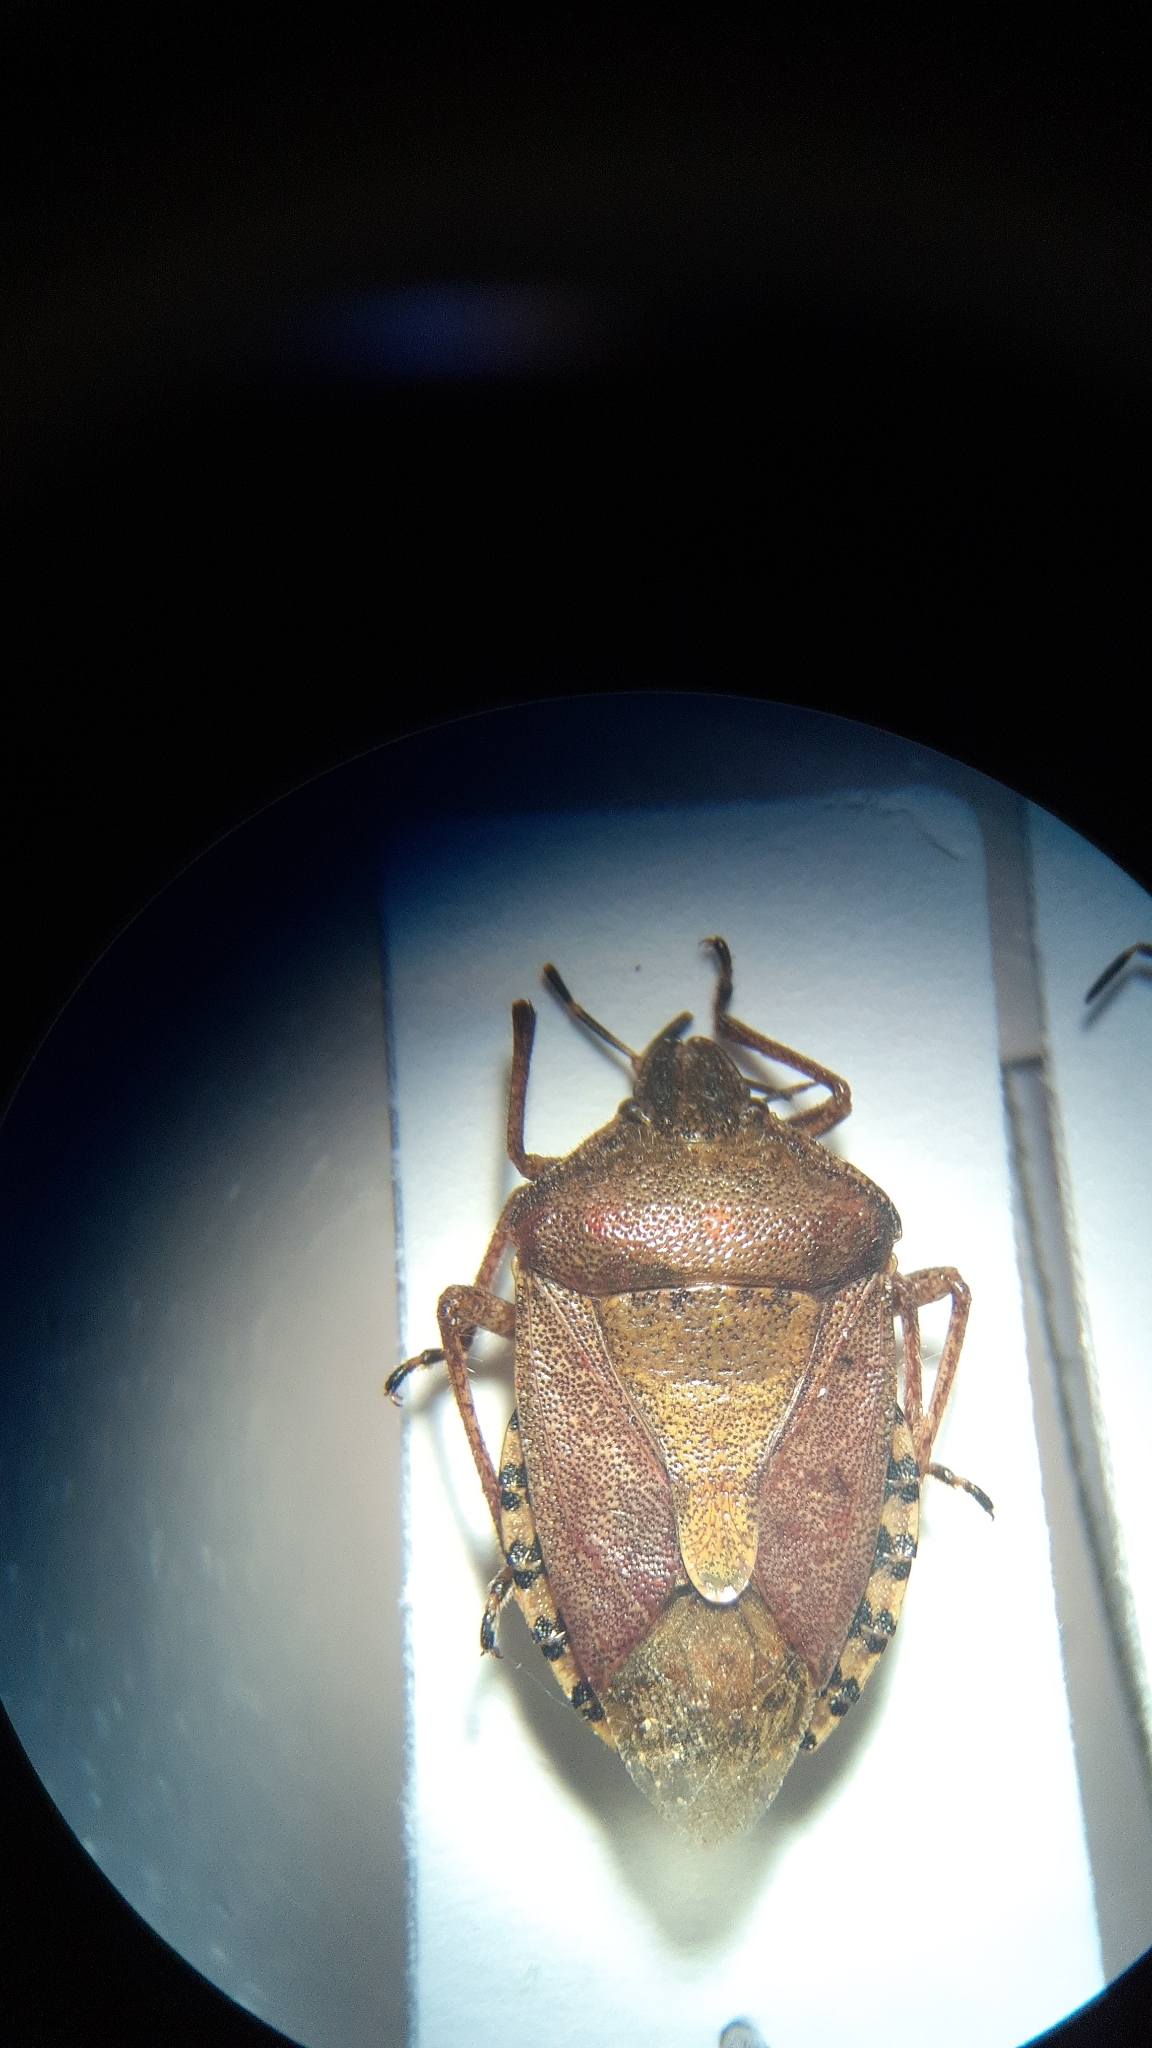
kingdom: Animalia
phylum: Arthropoda
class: Insecta
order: Hemiptera
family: Pentatomidae
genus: Dolycoris
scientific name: Dolycoris baccarum
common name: Sloe bug
